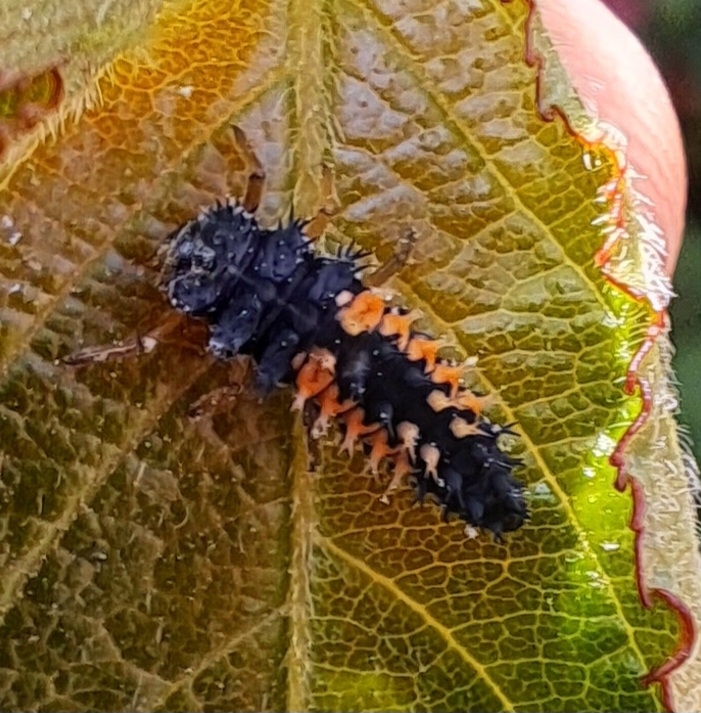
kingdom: Animalia
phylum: Arthropoda
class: Insecta
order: Coleoptera
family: Coccinellidae
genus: Harmonia
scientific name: Harmonia axyridis
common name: Harlequin ladybird
